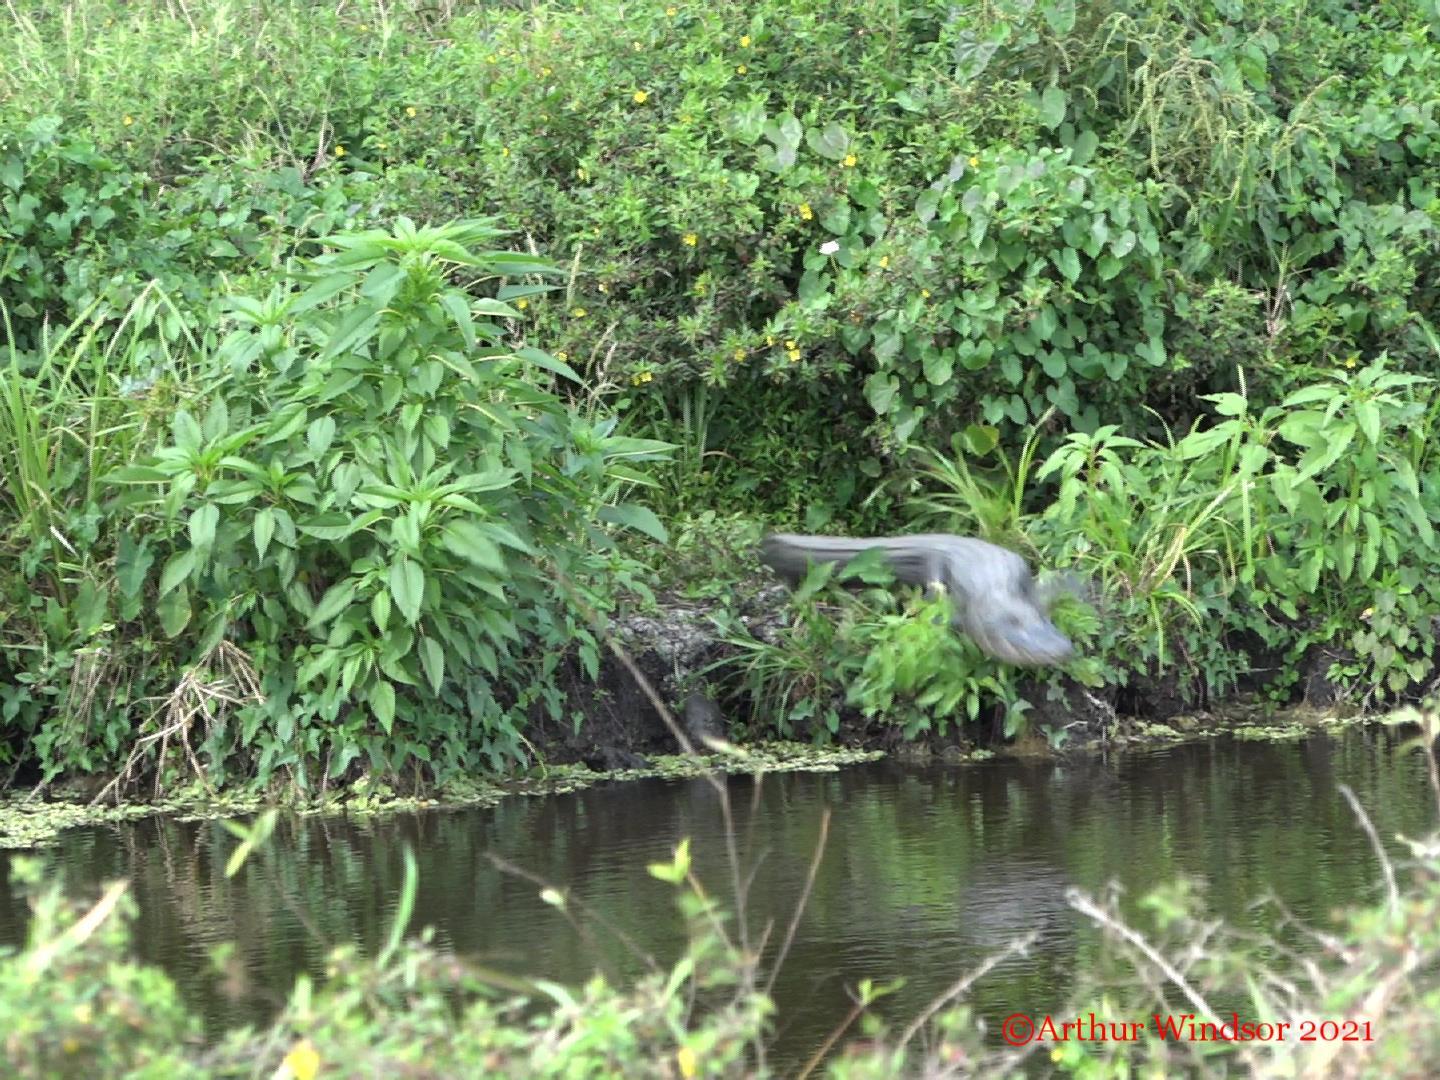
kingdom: Animalia
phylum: Chordata
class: Crocodylia
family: Alligatoridae
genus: Alligator
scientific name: Alligator mississippiensis
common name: American alligator
